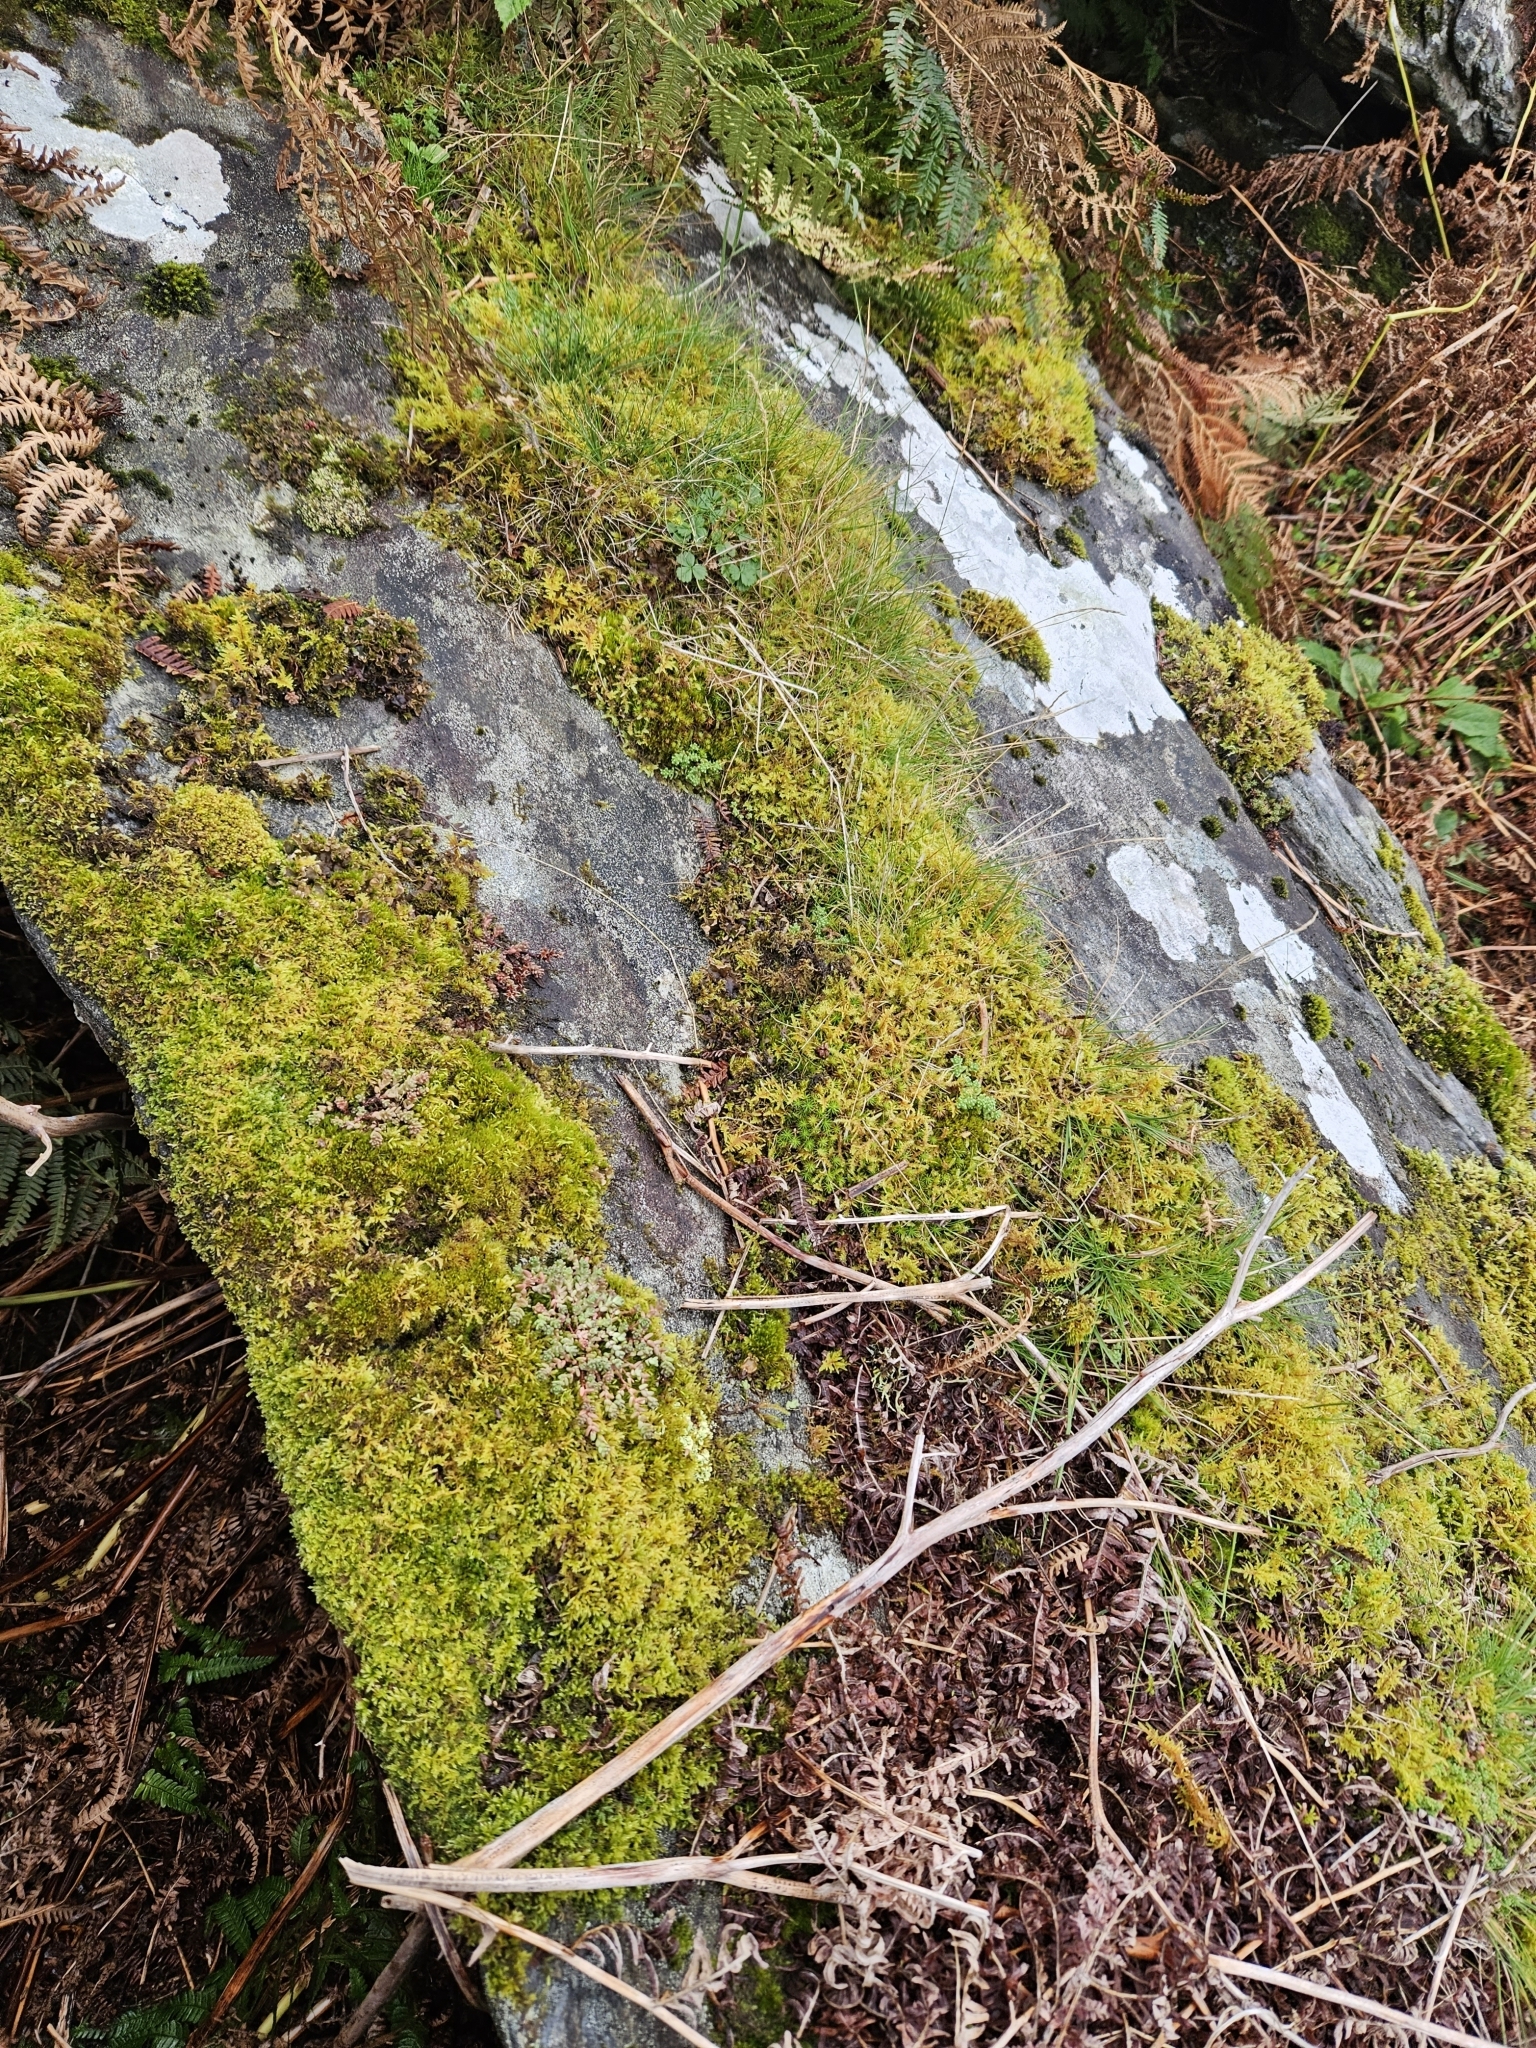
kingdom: Plantae
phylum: Bryophyta
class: Bryopsida
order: Dicranales
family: Leucobryaceae
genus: Campylopus
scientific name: Campylopus flexuosus
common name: Rusty swan-neck moss
